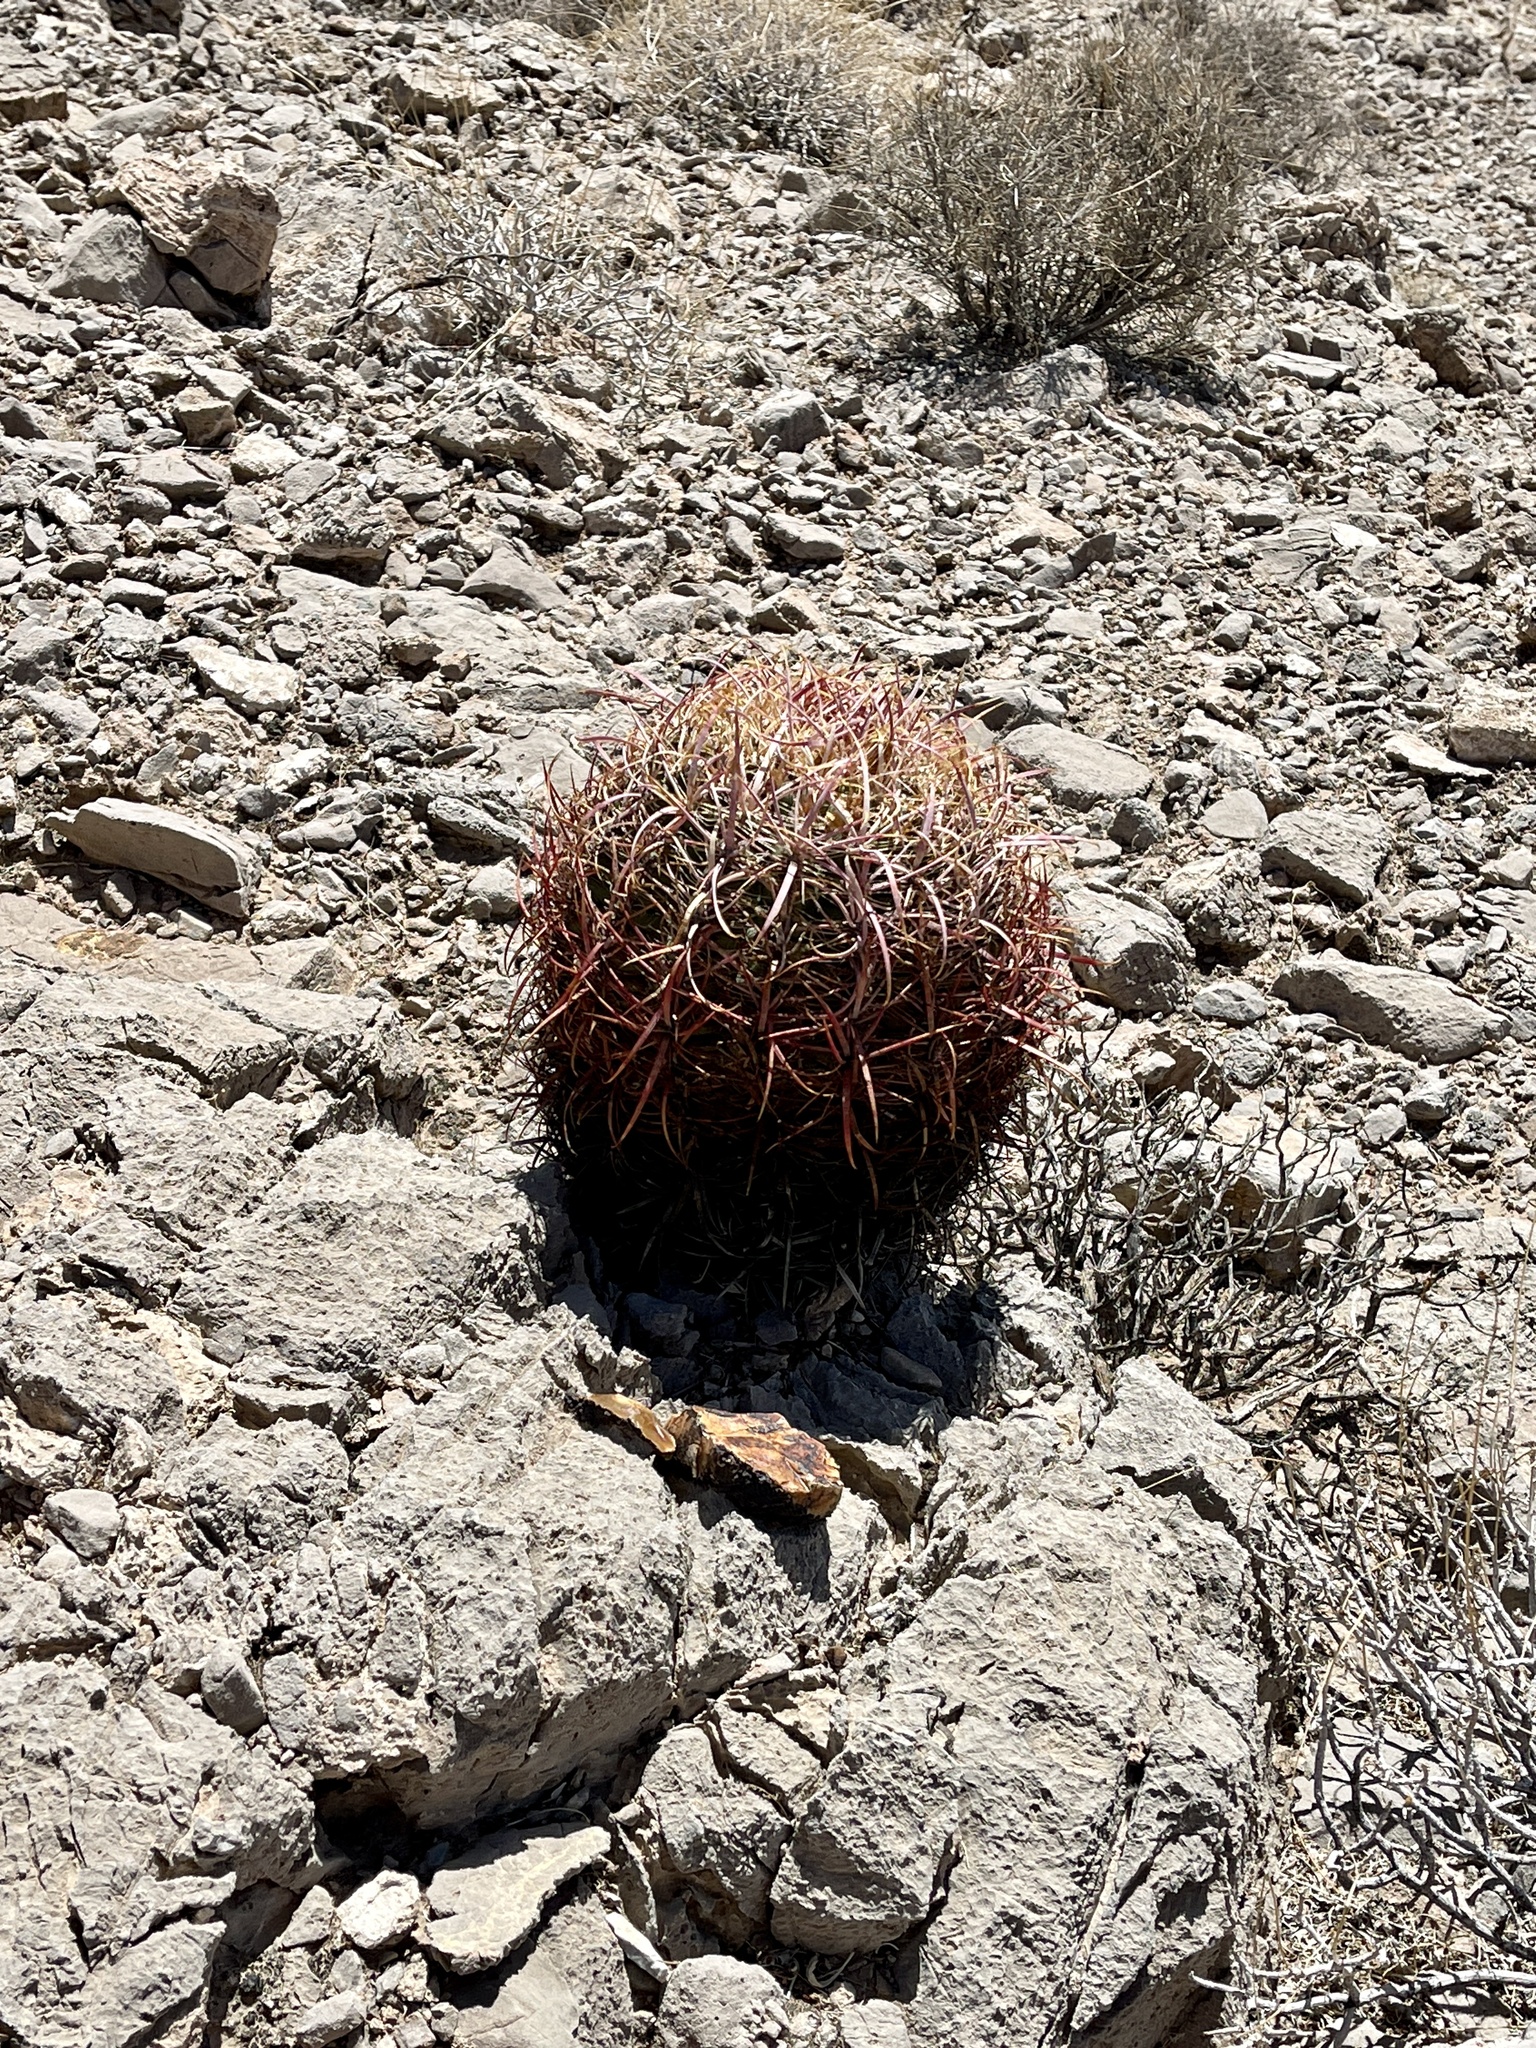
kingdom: Plantae
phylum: Tracheophyta
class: Magnoliopsida
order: Caryophyllales
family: Cactaceae
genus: Ferocactus
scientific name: Ferocactus cylindraceus
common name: California barrel cactus
